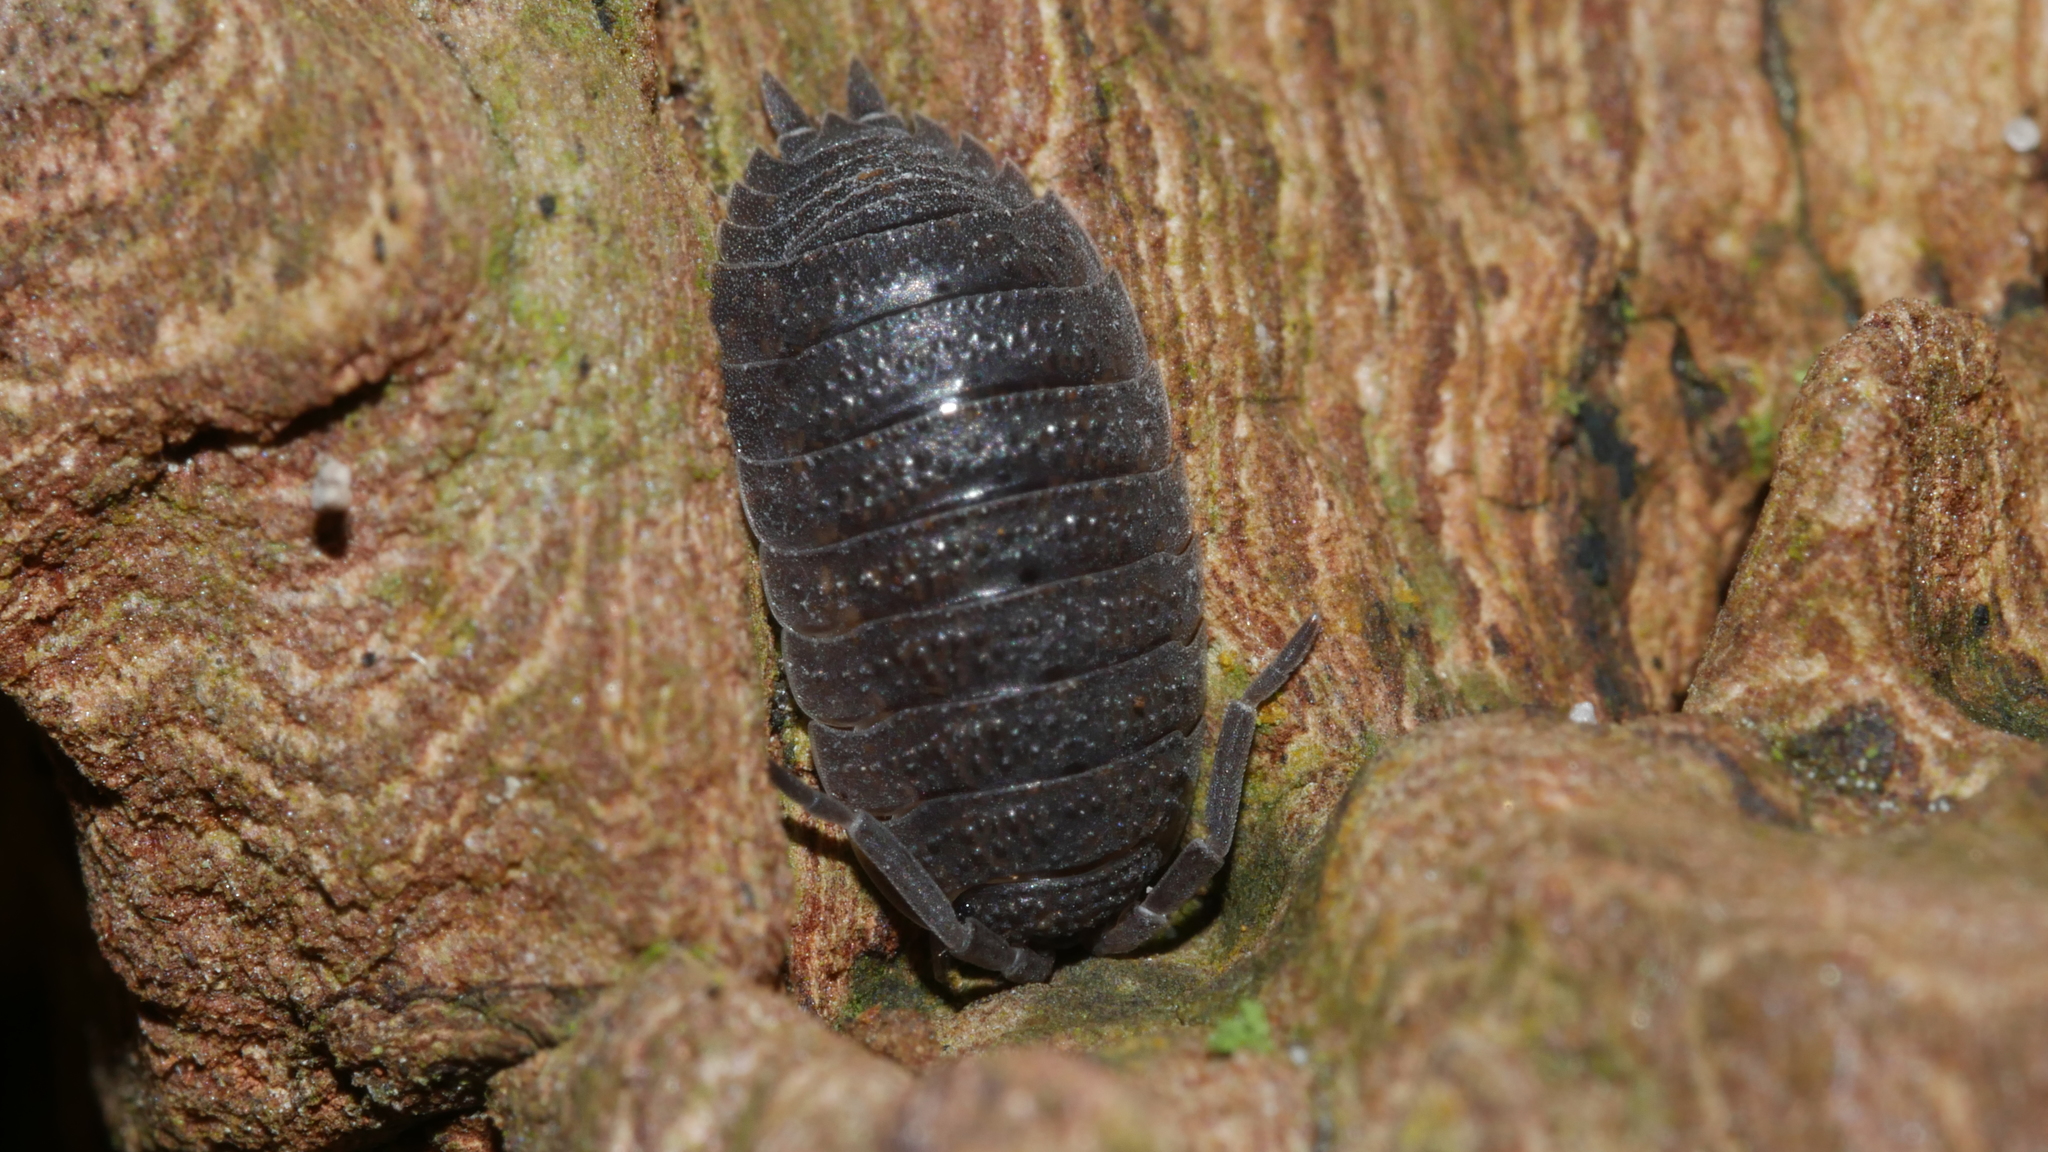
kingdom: Animalia
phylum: Arthropoda
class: Malacostraca
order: Isopoda
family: Porcellionidae
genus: Porcellio
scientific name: Porcellio scaber
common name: Common rough woodlouse
